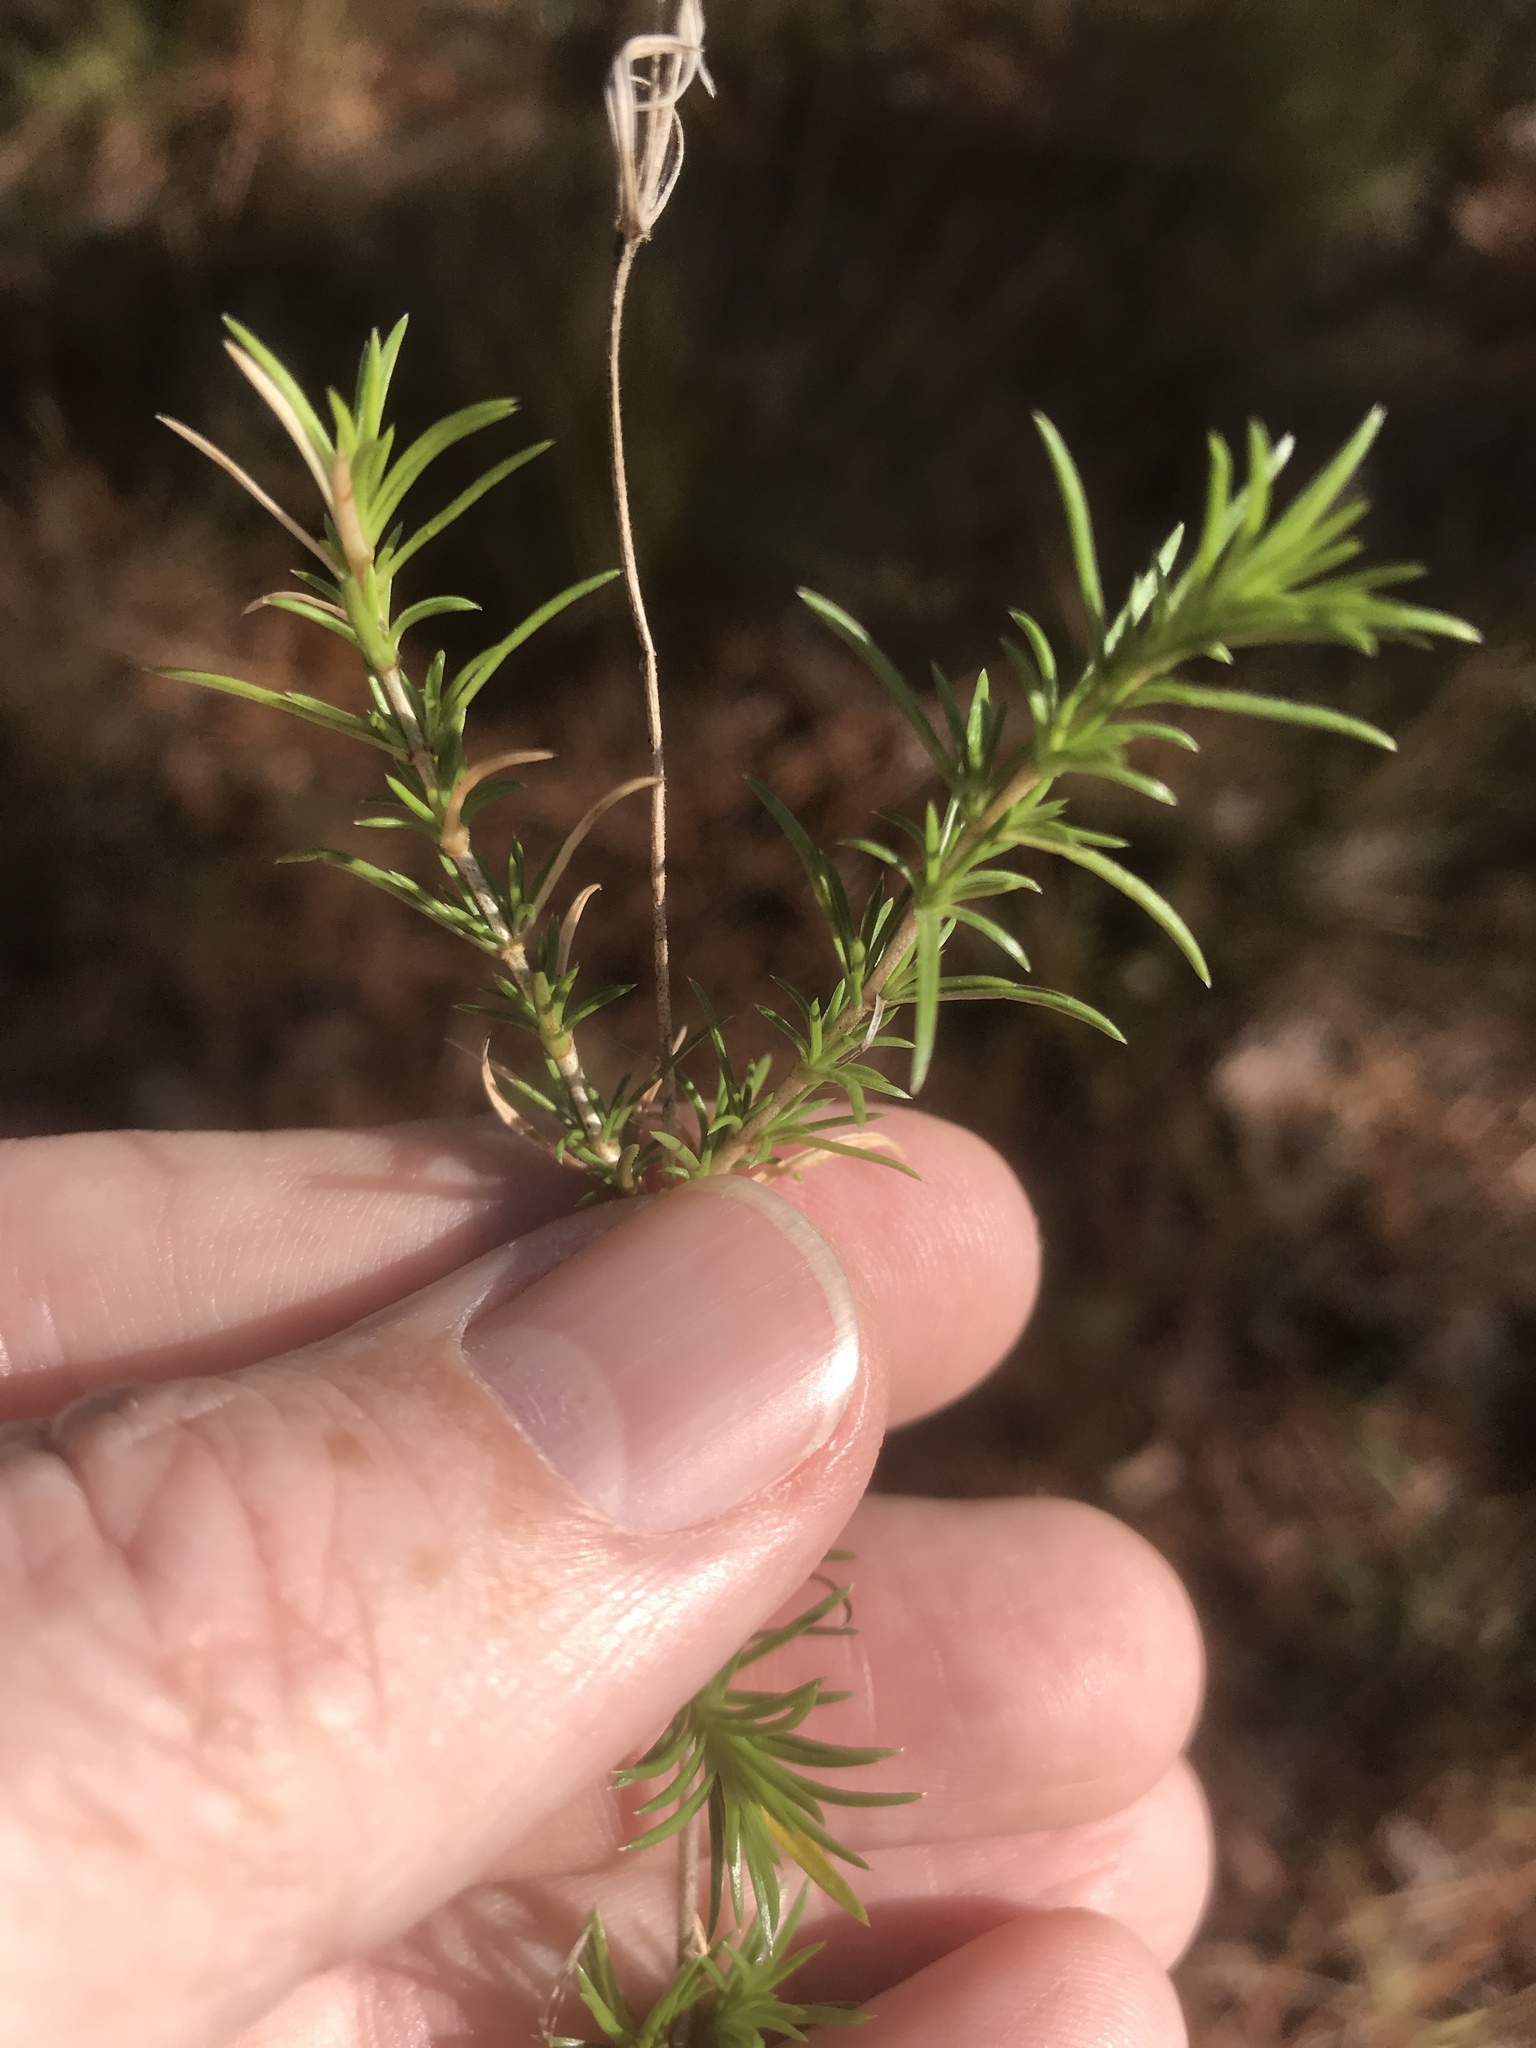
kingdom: Plantae
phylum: Tracheophyta
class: Magnoliopsida
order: Ericales
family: Polemoniaceae
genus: Phlox
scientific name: Phlox nivalis
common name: Trailing phlox
